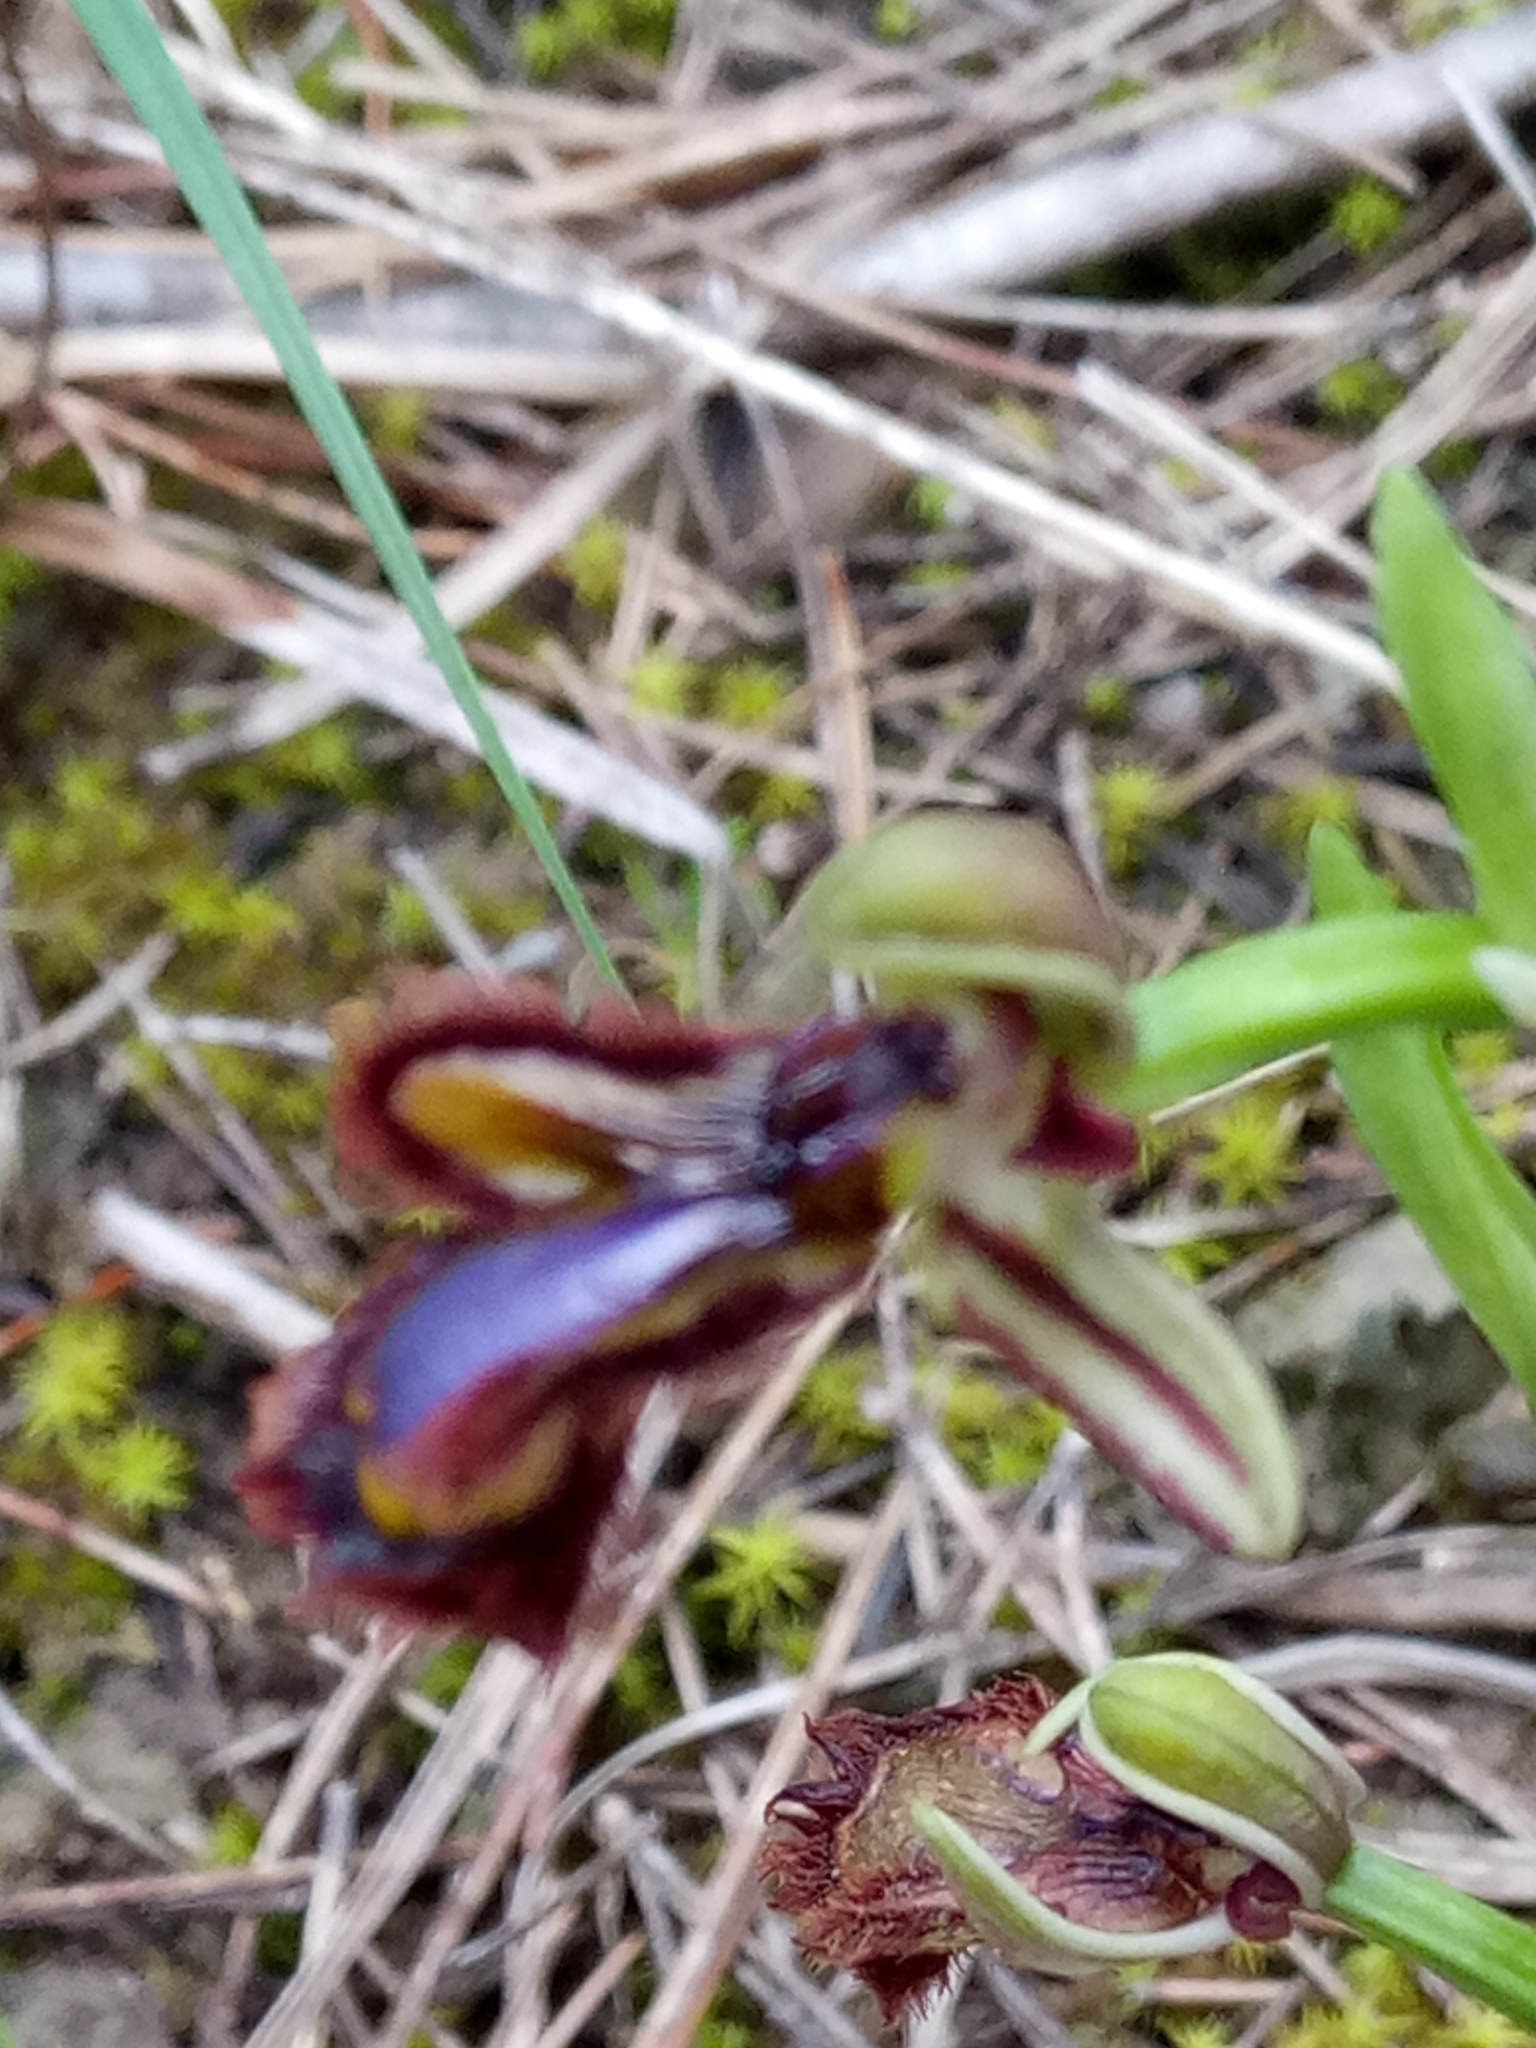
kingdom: Plantae
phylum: Tracheophyta
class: Liliopsida
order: Asparagales
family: Orchidaceae
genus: Ophrys
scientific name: Ophrys speculum
